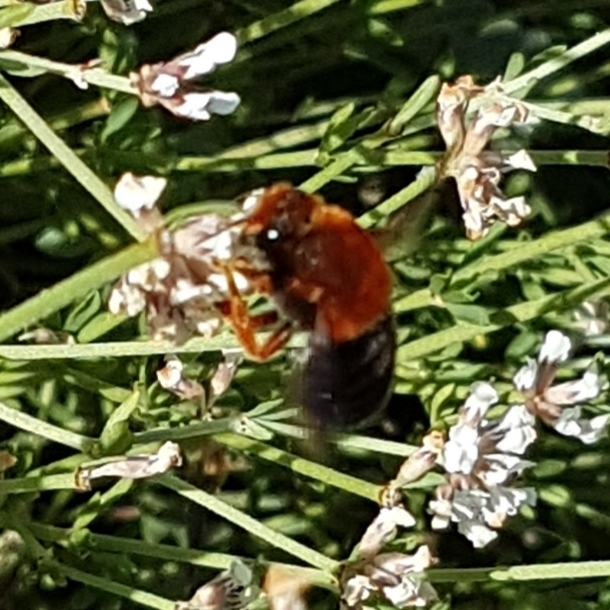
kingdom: Animalia
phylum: Arthropoda
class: Insecta
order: Hymenoptera
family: Megachilidae
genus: Megachile
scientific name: Megachile sicula
